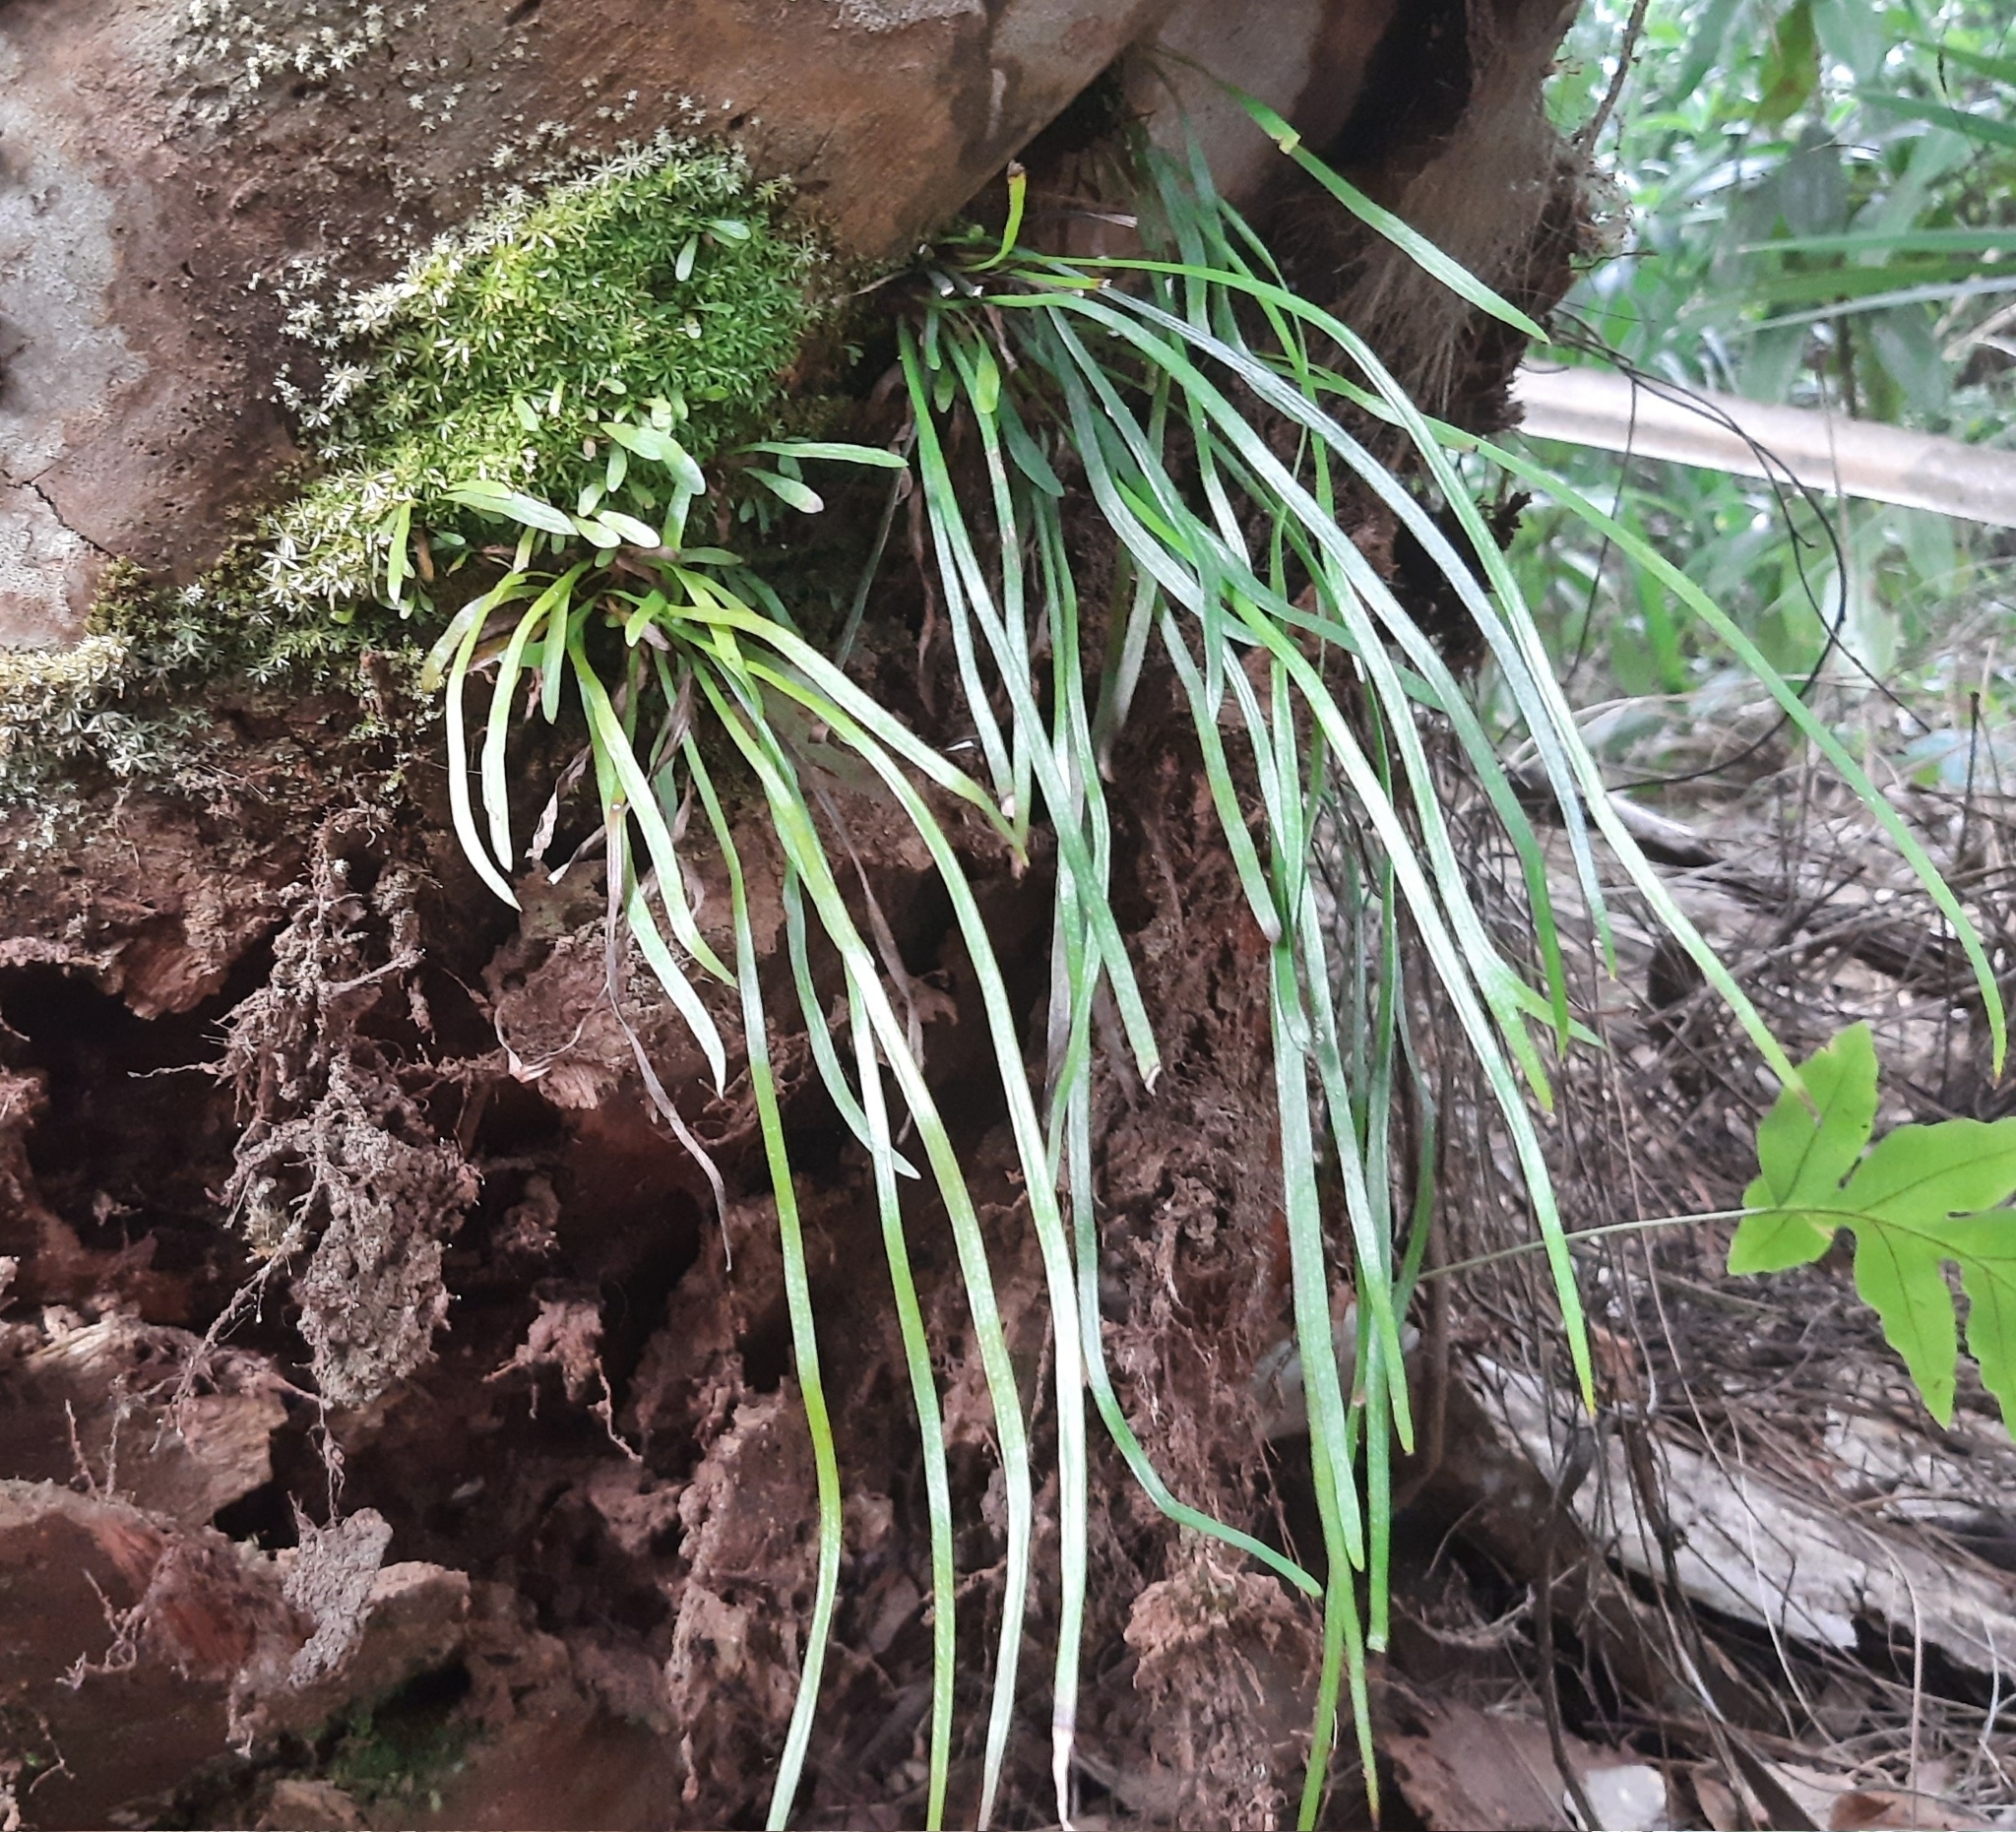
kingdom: Plantae
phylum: Tracheophyta
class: Polypodiopsida
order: Polypodiales
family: Pteridaceae
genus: Vittaria
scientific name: Vittaria lineata
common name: Shoestring fern
